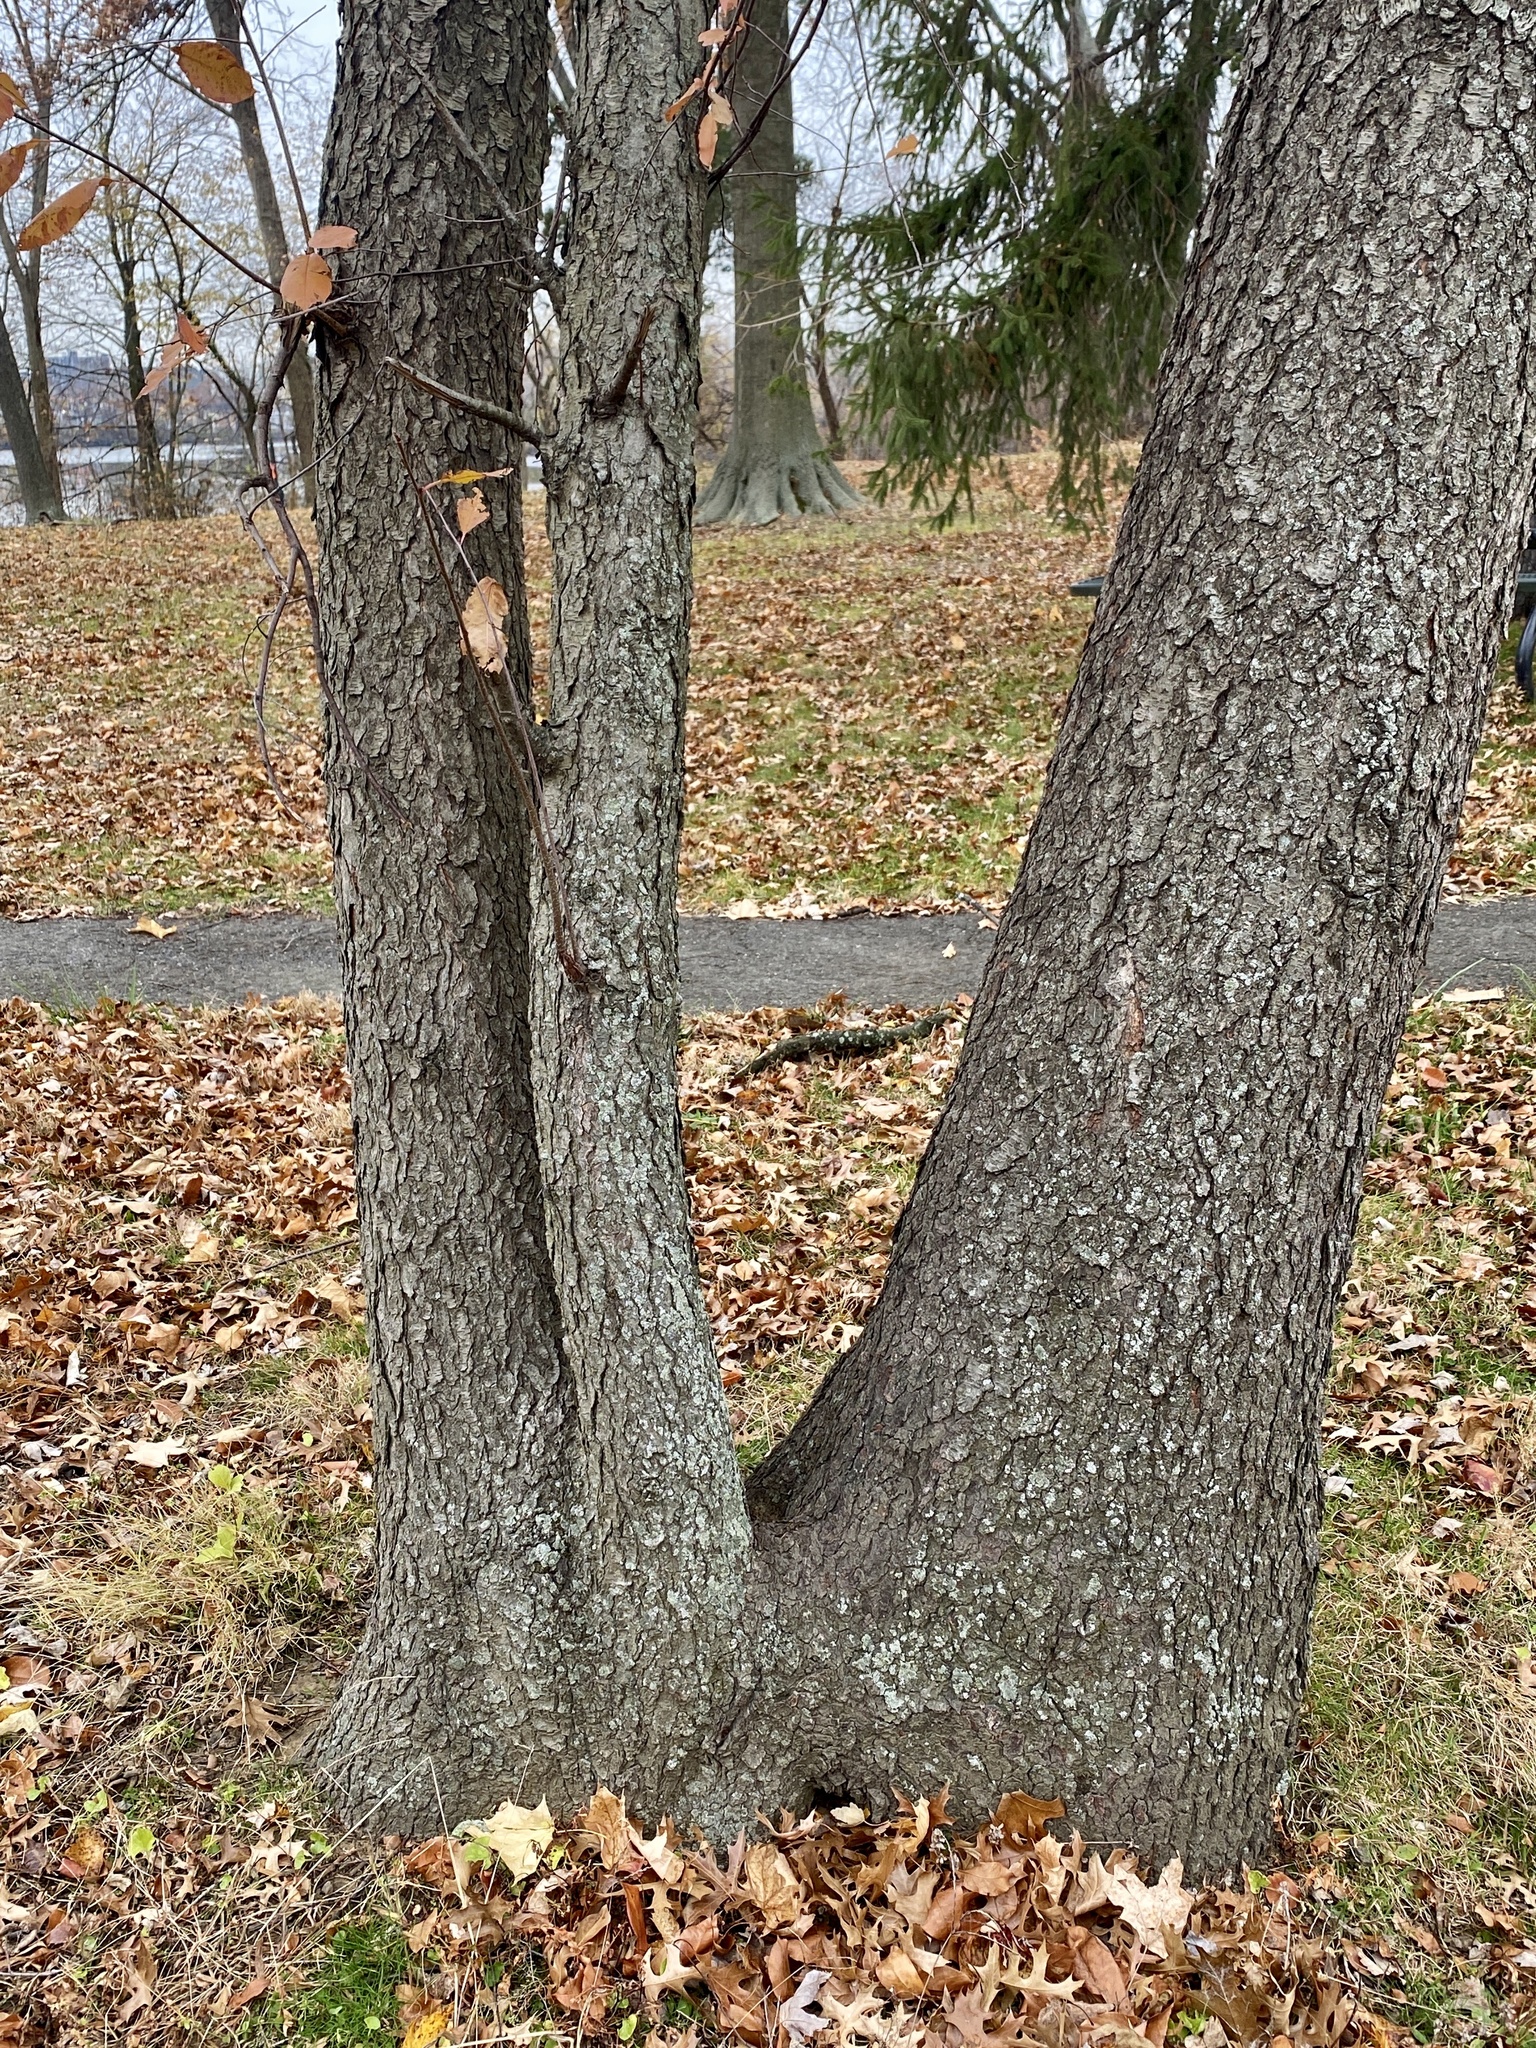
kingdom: Plantae
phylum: Tracheophyta
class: Magnoliopsida
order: Rosales
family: Rosaceae
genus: Prunus
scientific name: Prunus serotina
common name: Black cherry
